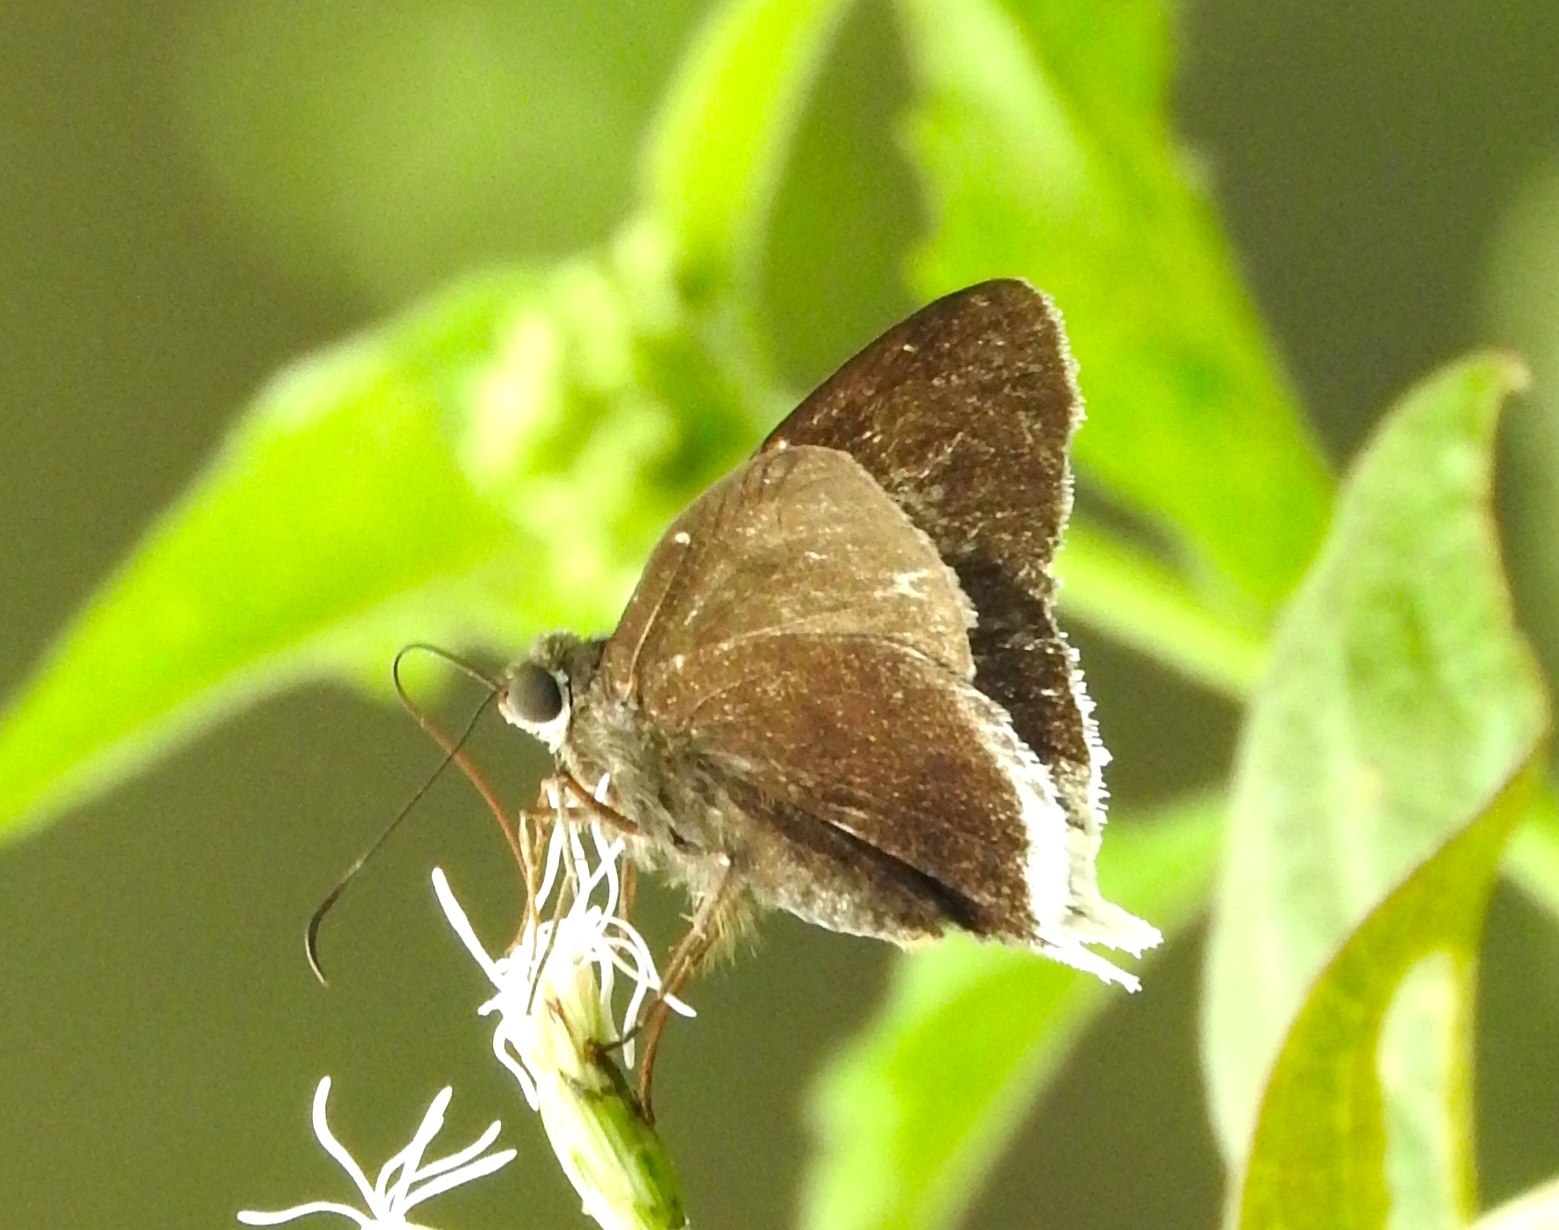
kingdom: Animalia
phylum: Arthropoda
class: Insecta
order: Lepidoptera
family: Hesperiidae
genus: Achalarus
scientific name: Achalarus
